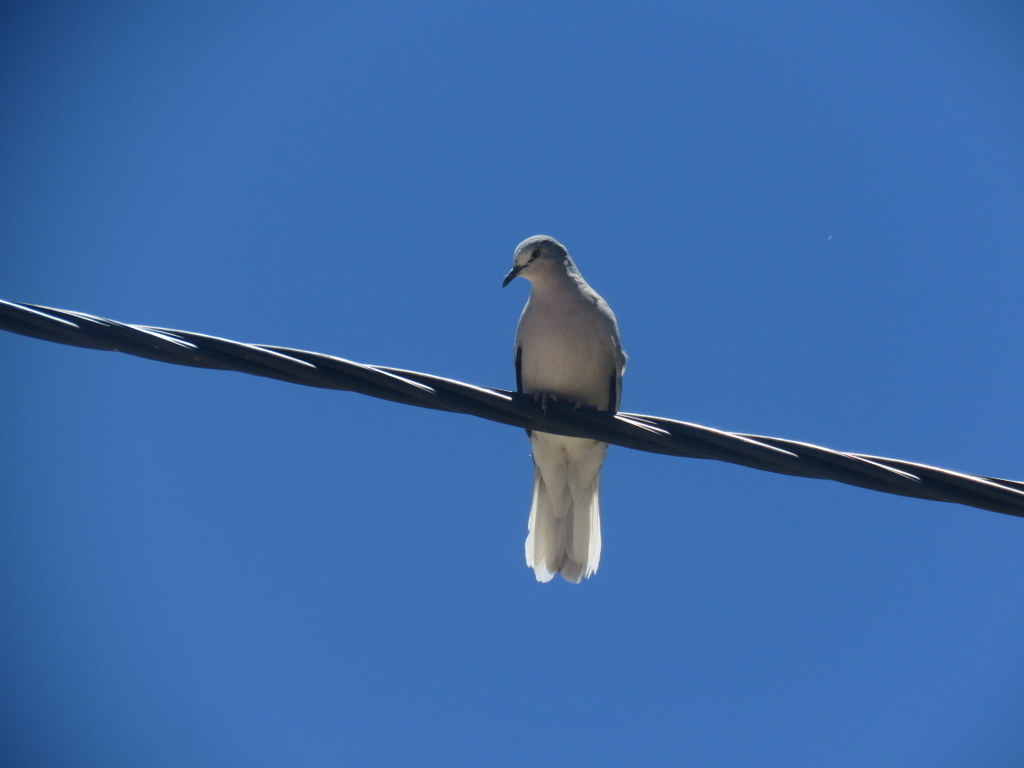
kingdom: Animalia
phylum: Chordata
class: Aves
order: Columbiformes
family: Columbidae
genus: Columbina
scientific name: Columbina picui
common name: Picui ground dove
